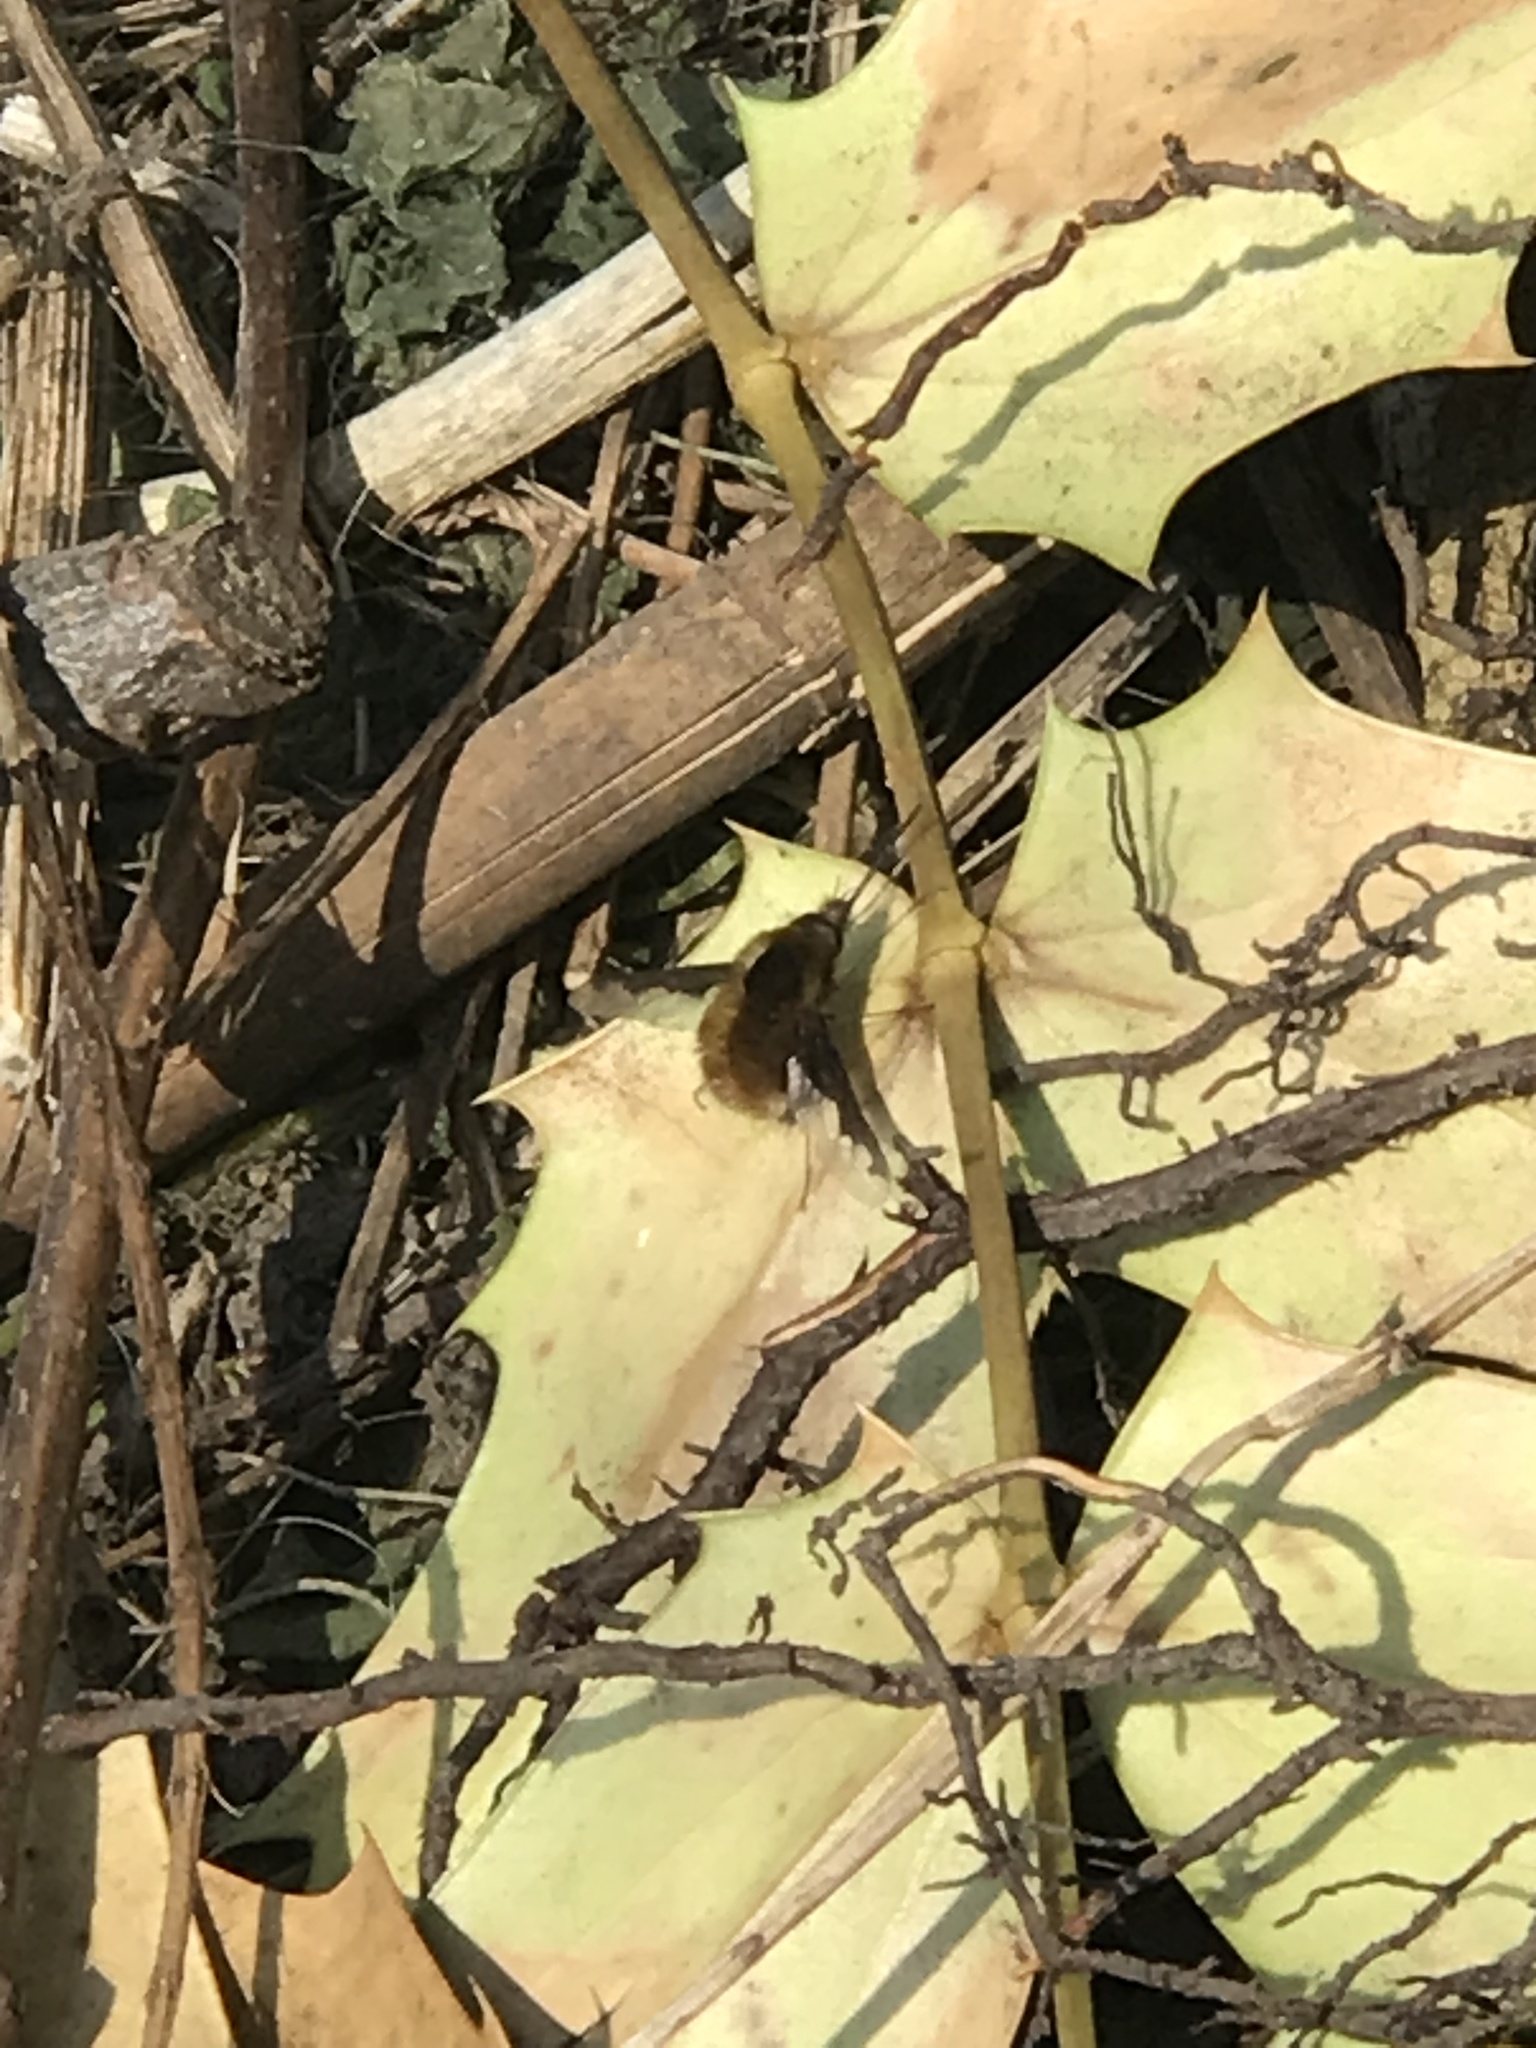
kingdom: Animalia
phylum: Arthropoda
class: Insecta
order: Diptera
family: Bombyliidae
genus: Bombylius
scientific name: Bombylius major
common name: Bee fly
